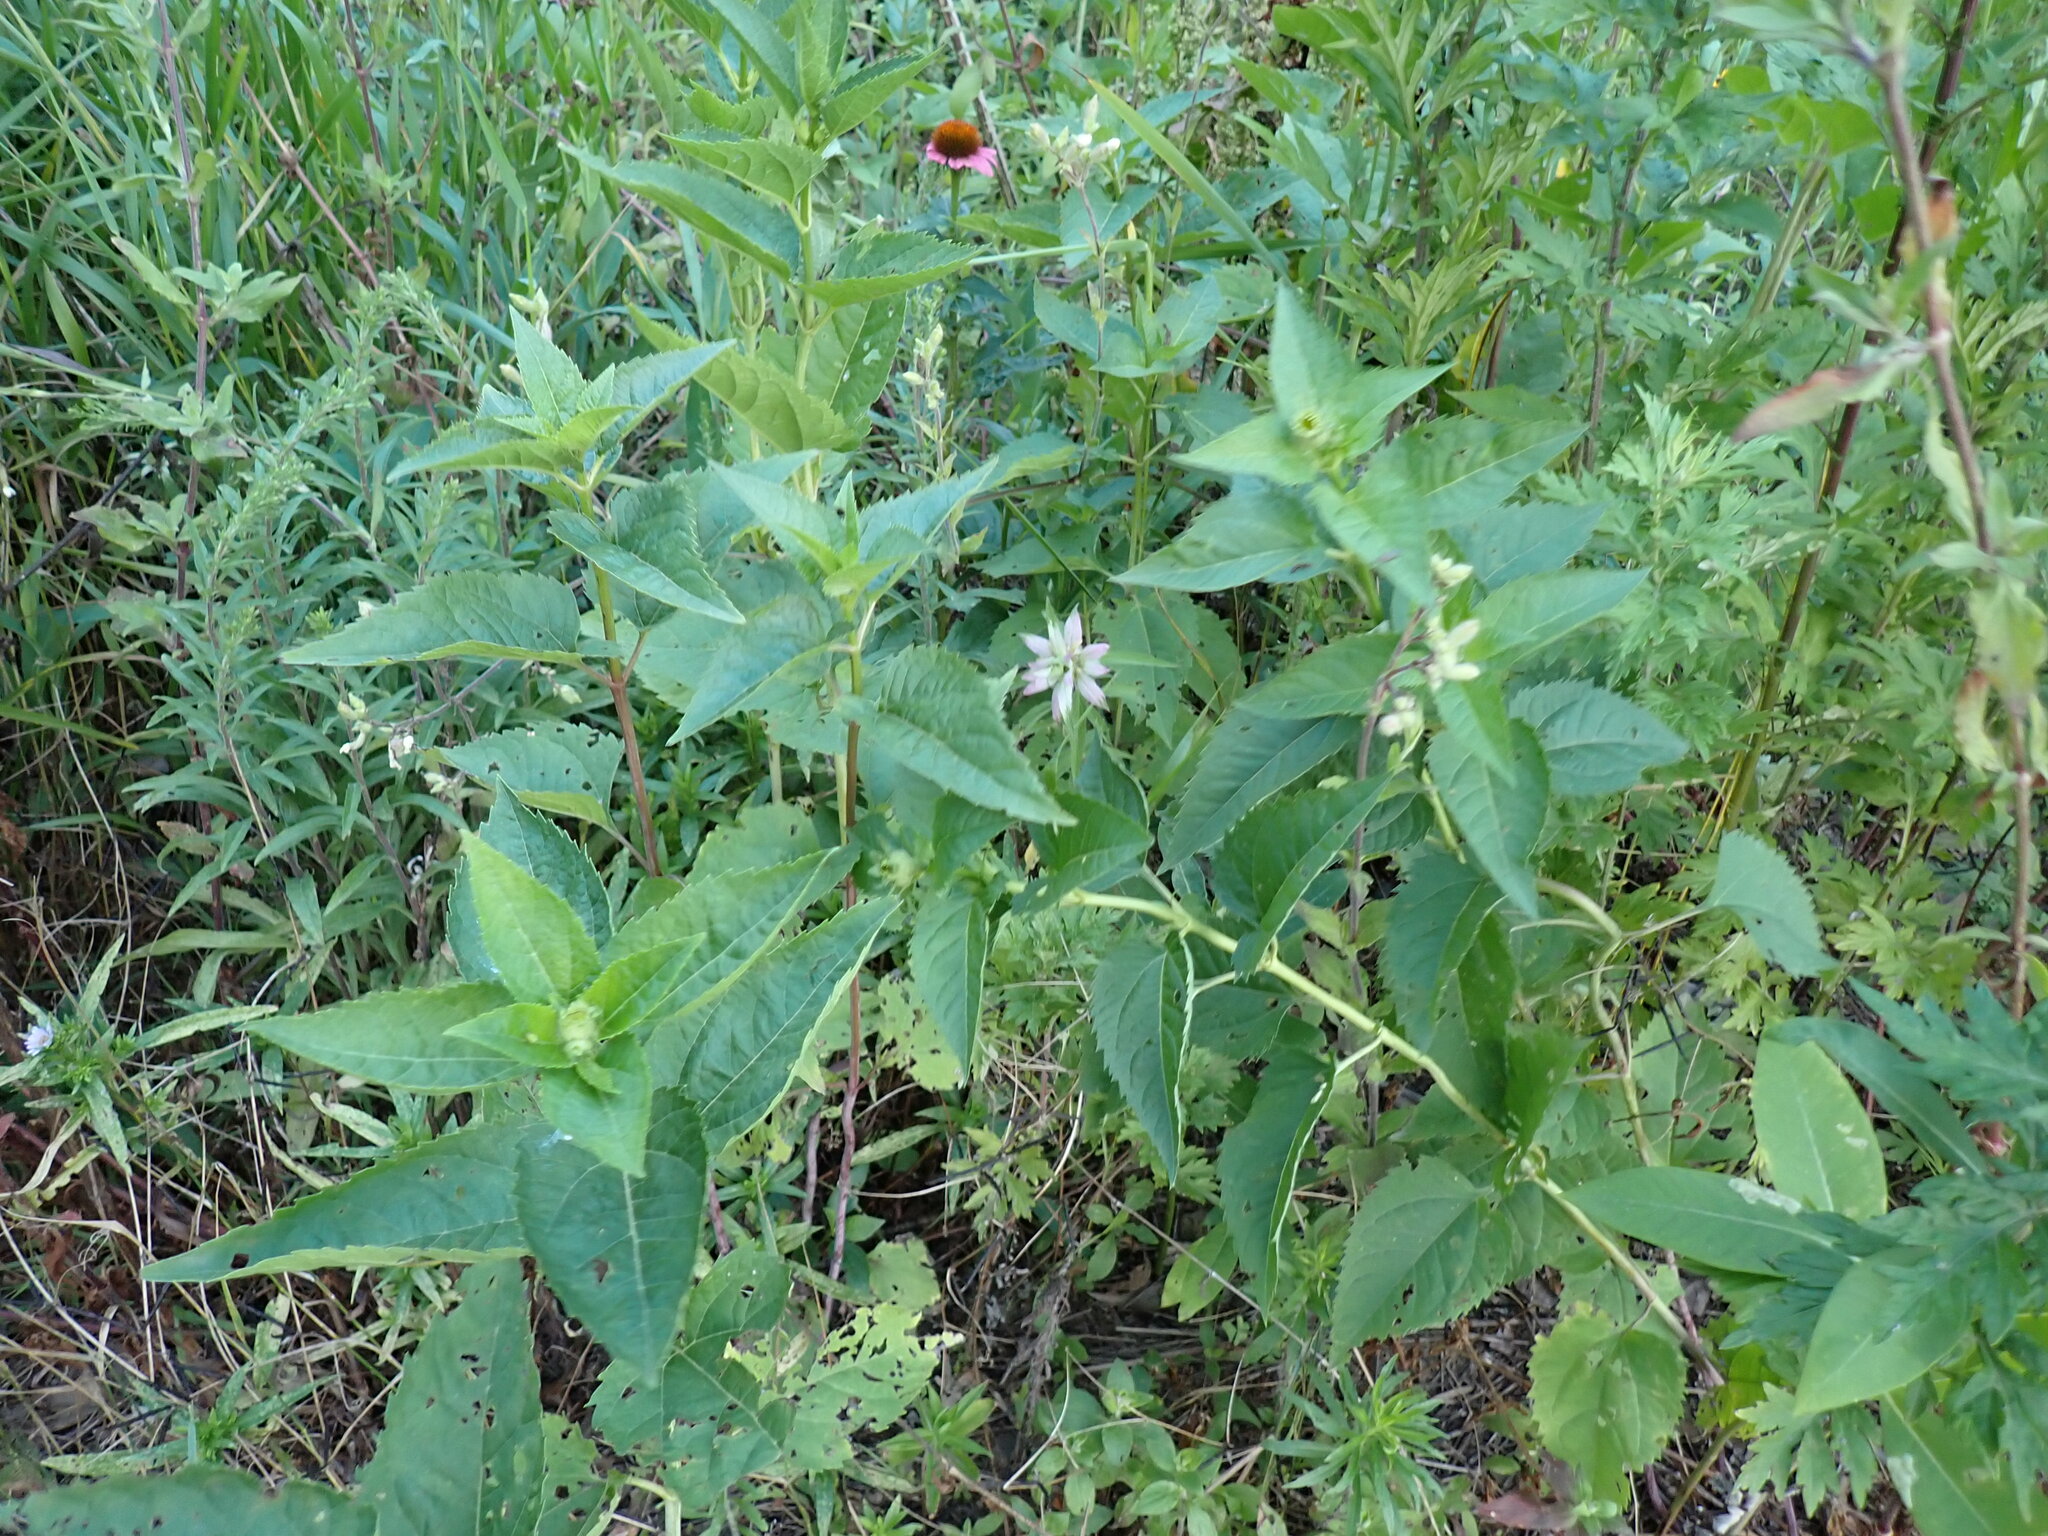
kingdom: Plantae
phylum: Tracheophyta
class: Magnoliopsida
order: Lamiales
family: Lamiaceae
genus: Monarda
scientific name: Monarda punctata
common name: Dotted monarda
